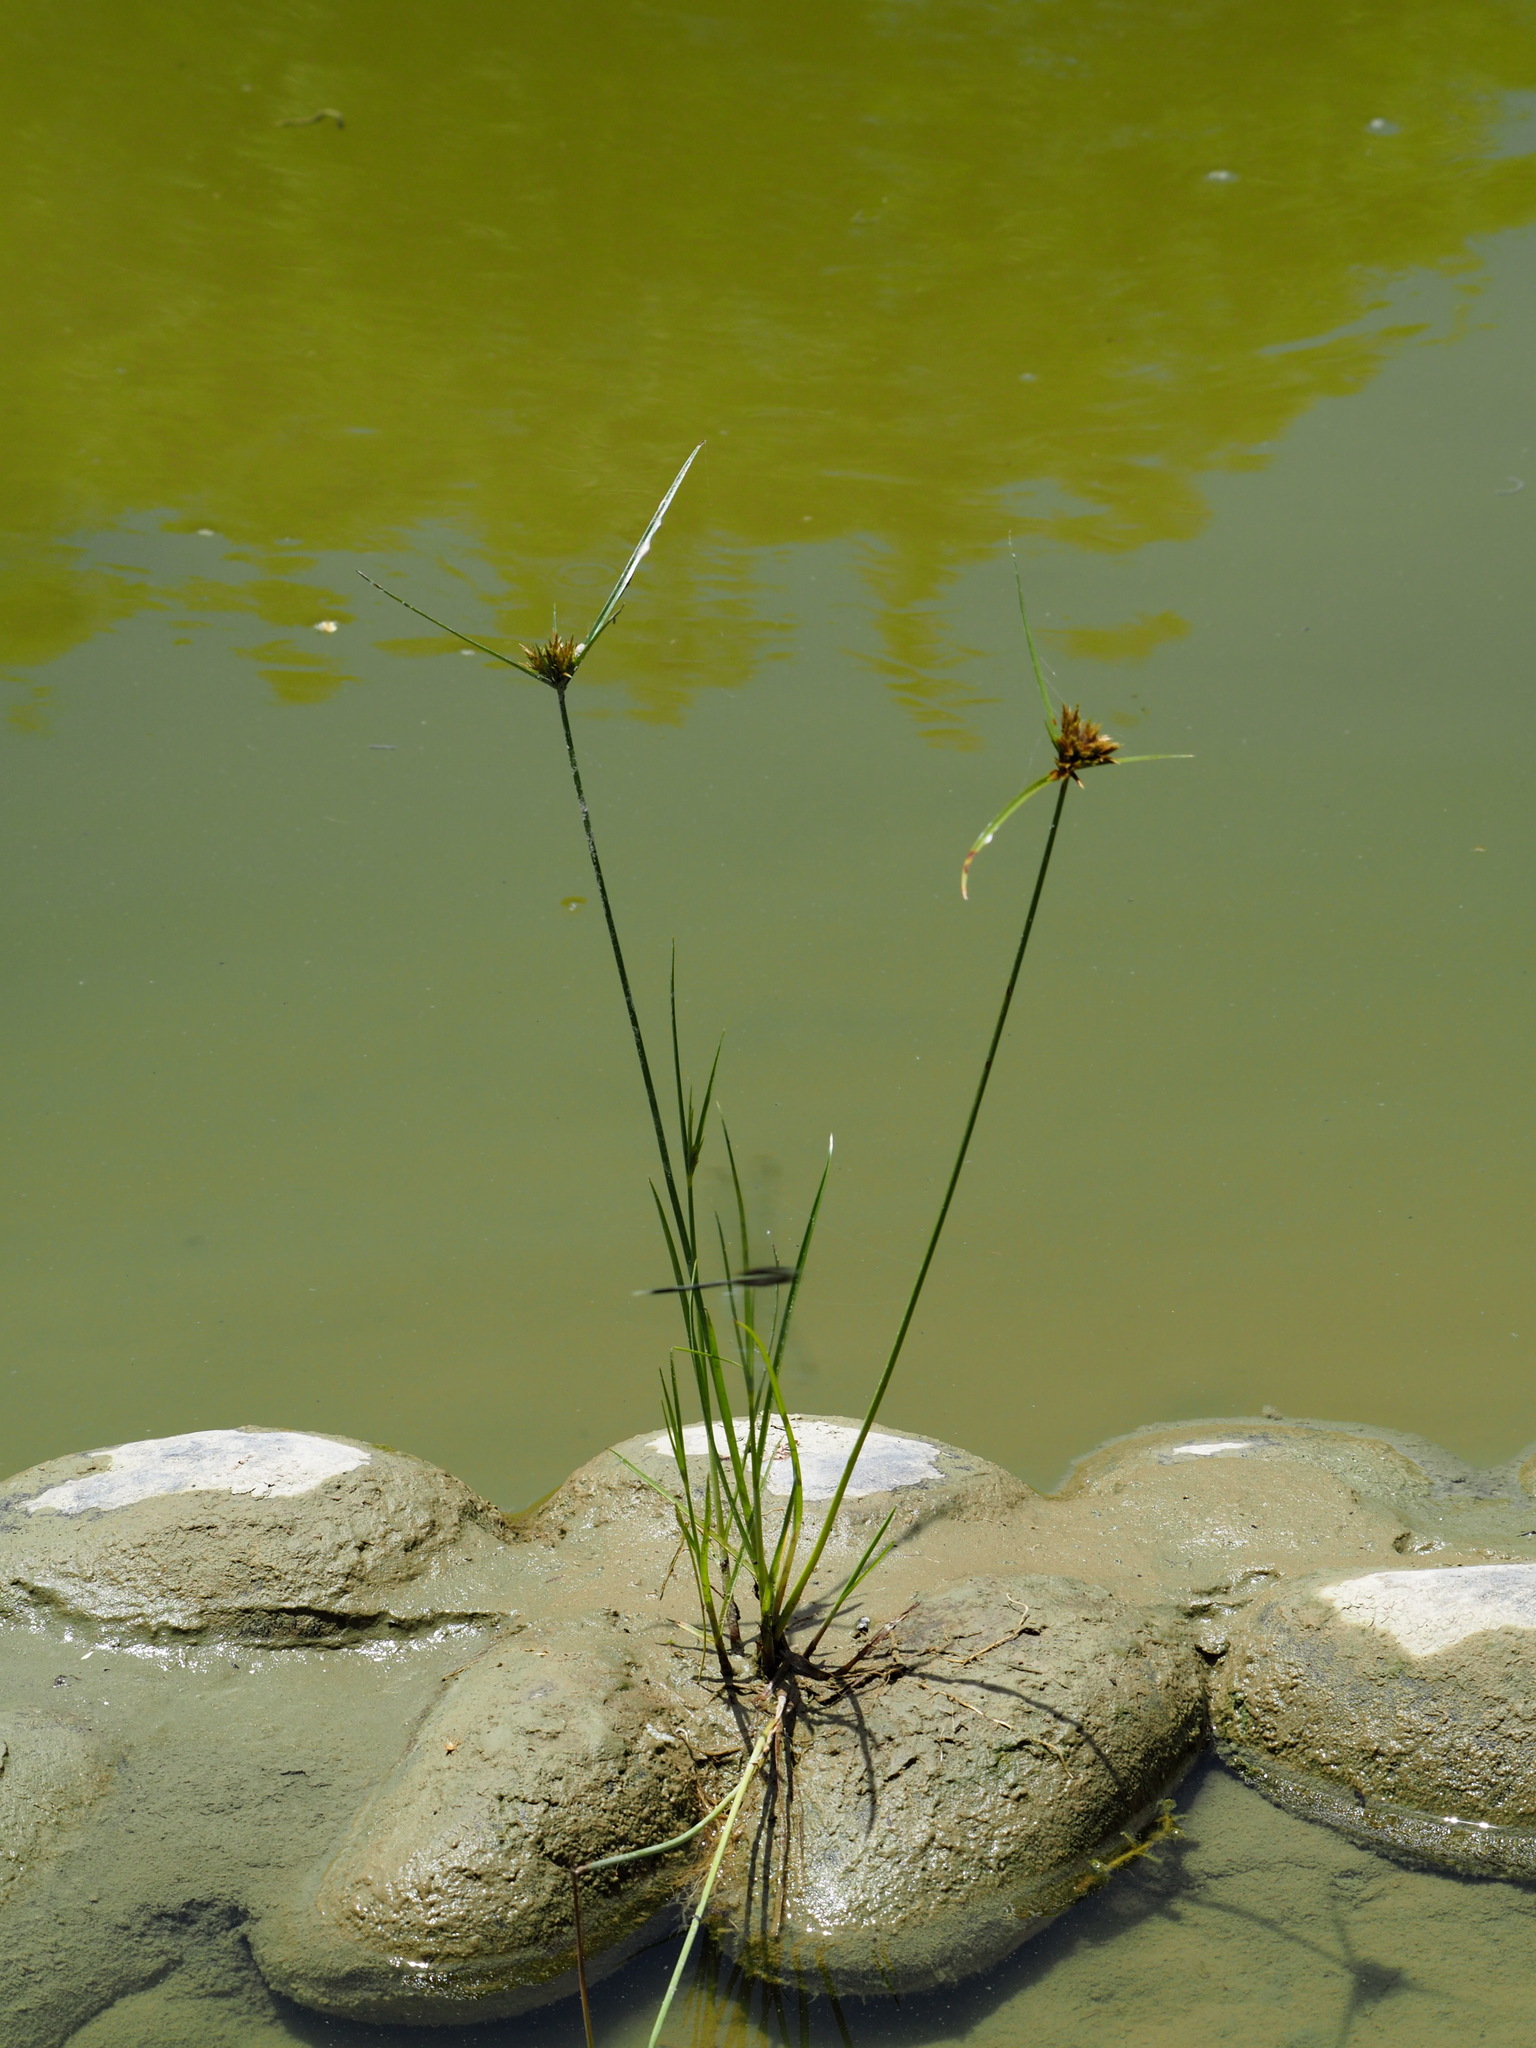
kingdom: Plantae
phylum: Tracheophyta
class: Liliopsida
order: Poales
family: Cyperaceae
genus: Cyperus
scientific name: Cyperus polystachyos
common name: Bunchy flat sedge
